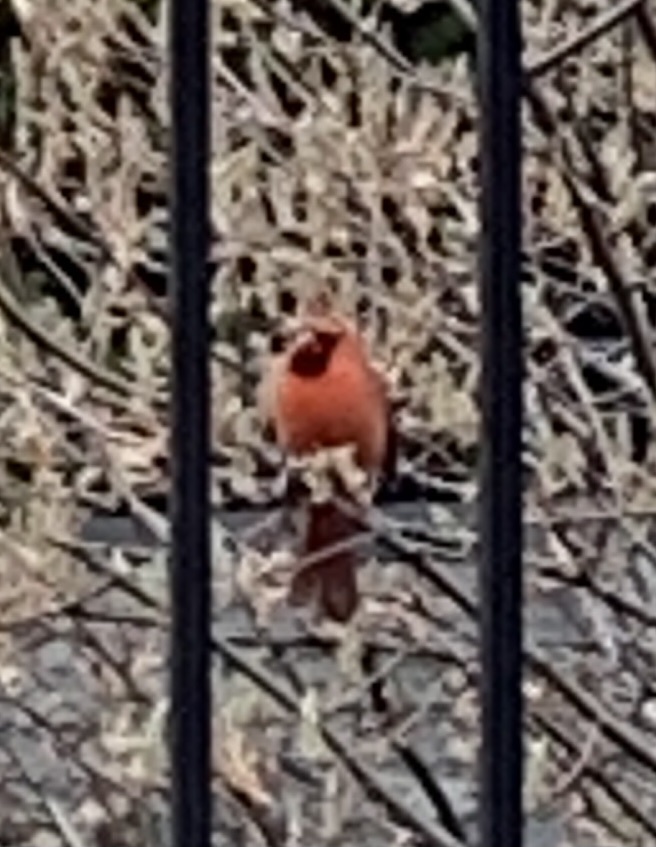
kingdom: Animalia
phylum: Chordata
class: Aves
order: Passeriformes
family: Cardinalidae
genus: Cardinalis
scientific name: Cardinalis cardinalis
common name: Northern cardinal
